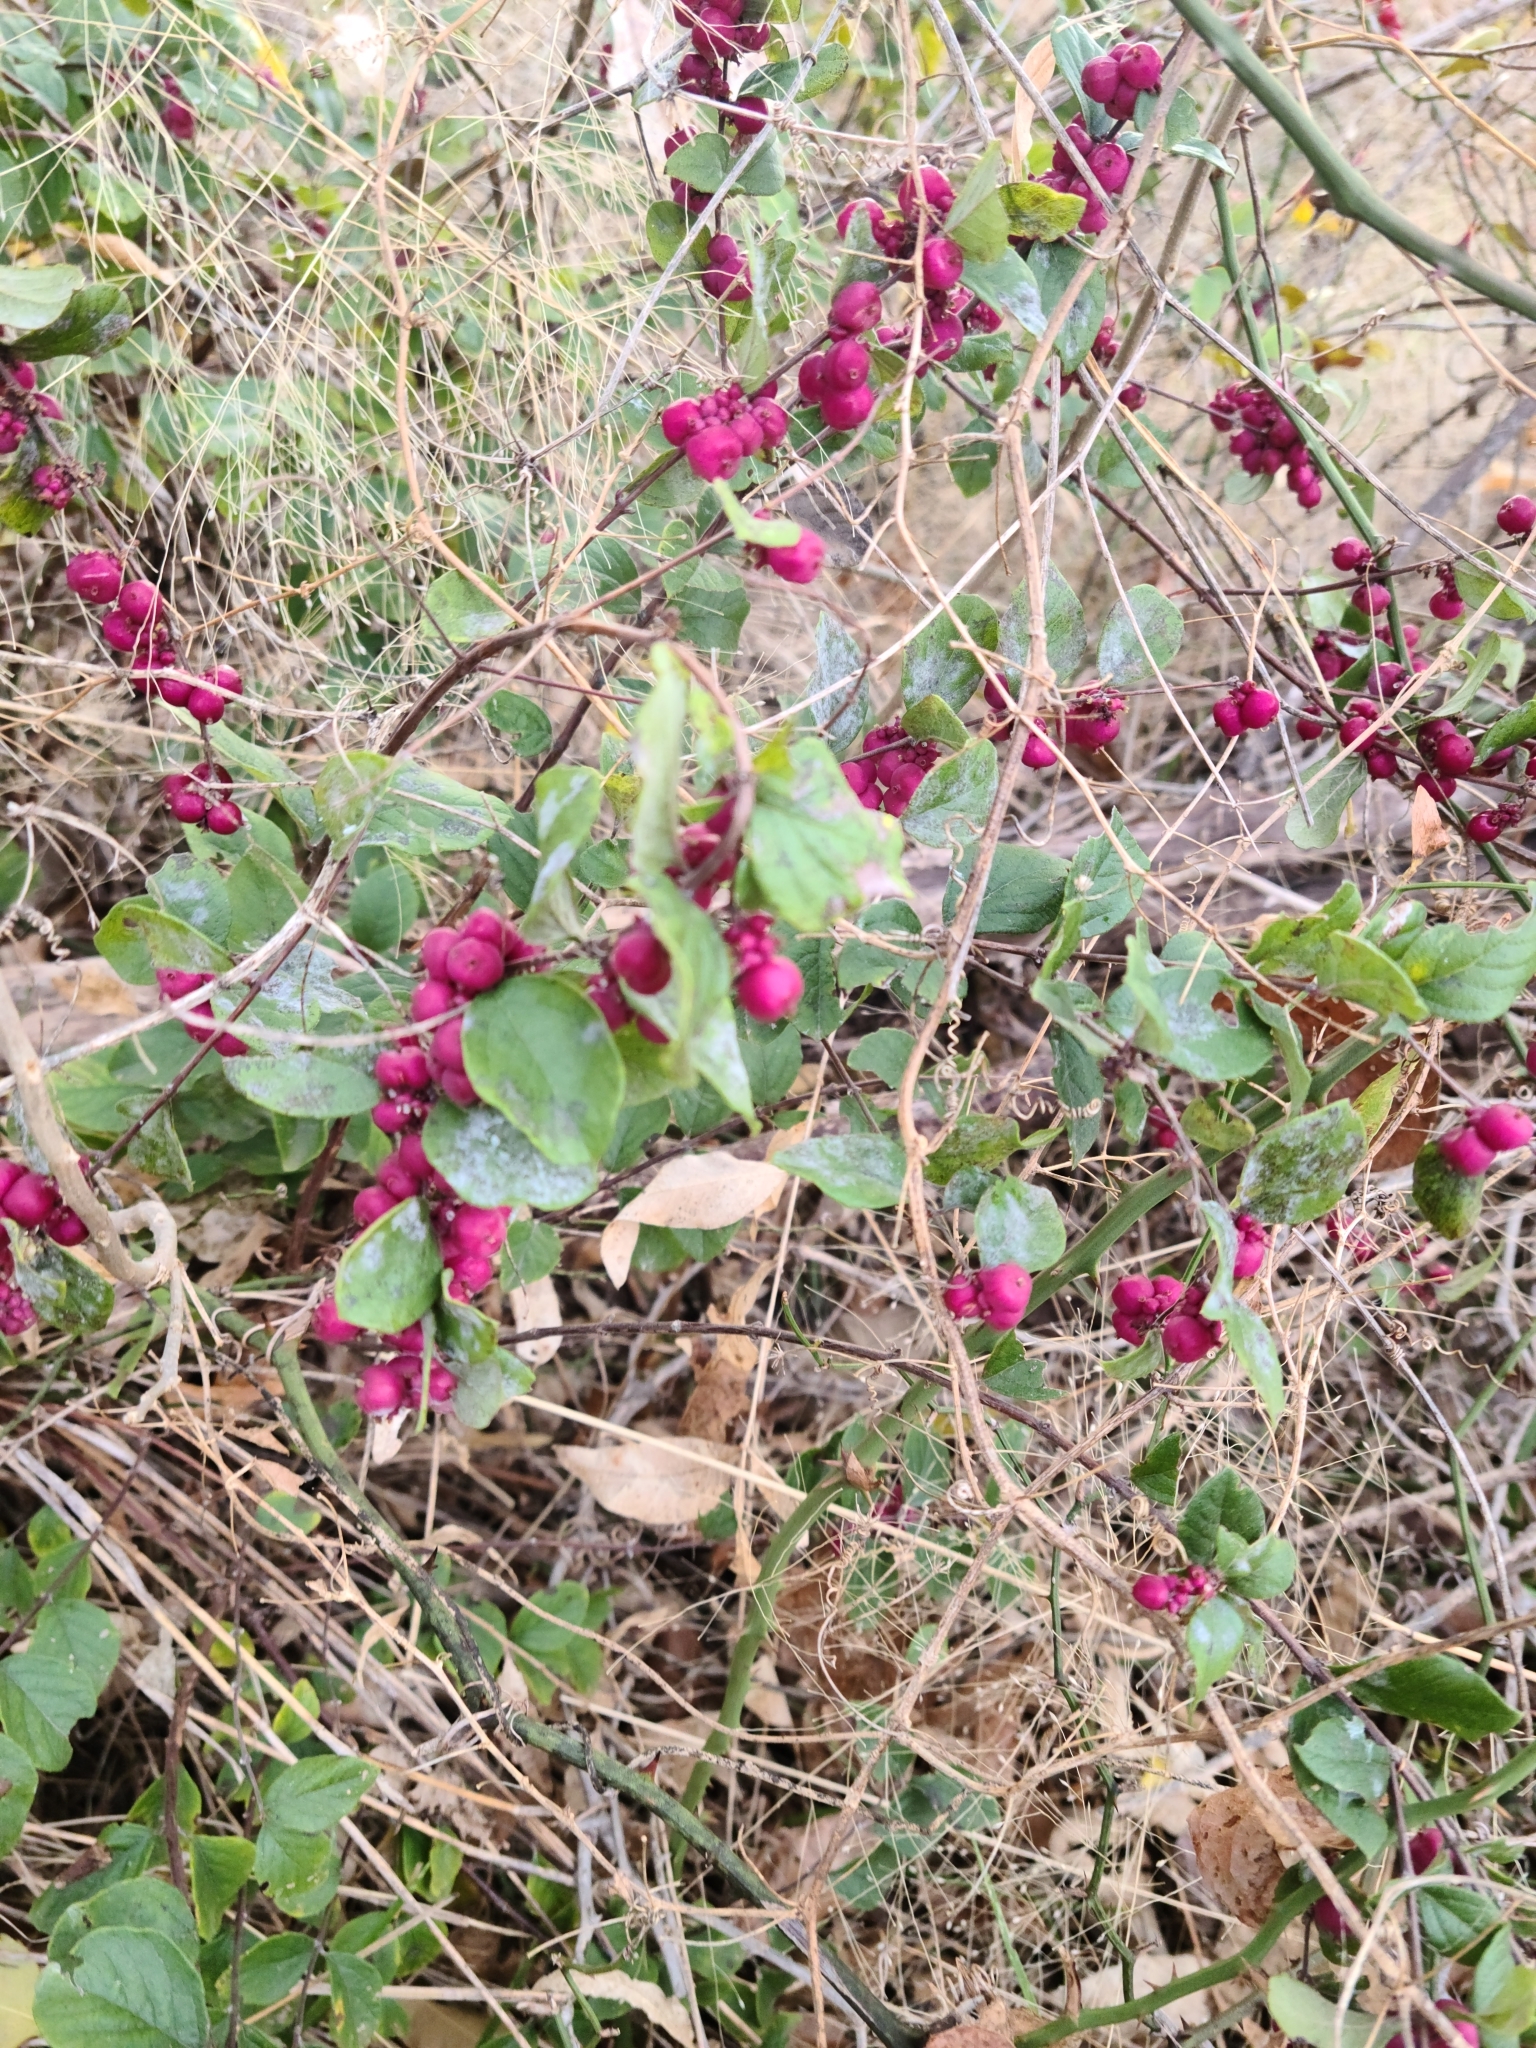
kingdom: Plantae
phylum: Tracheophyta
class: Magnoliopsida
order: Dipsacales
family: Caprifoliaceae
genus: Symphoricarpos
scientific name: Symphoricarpos orbiculatus
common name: Coralberry
